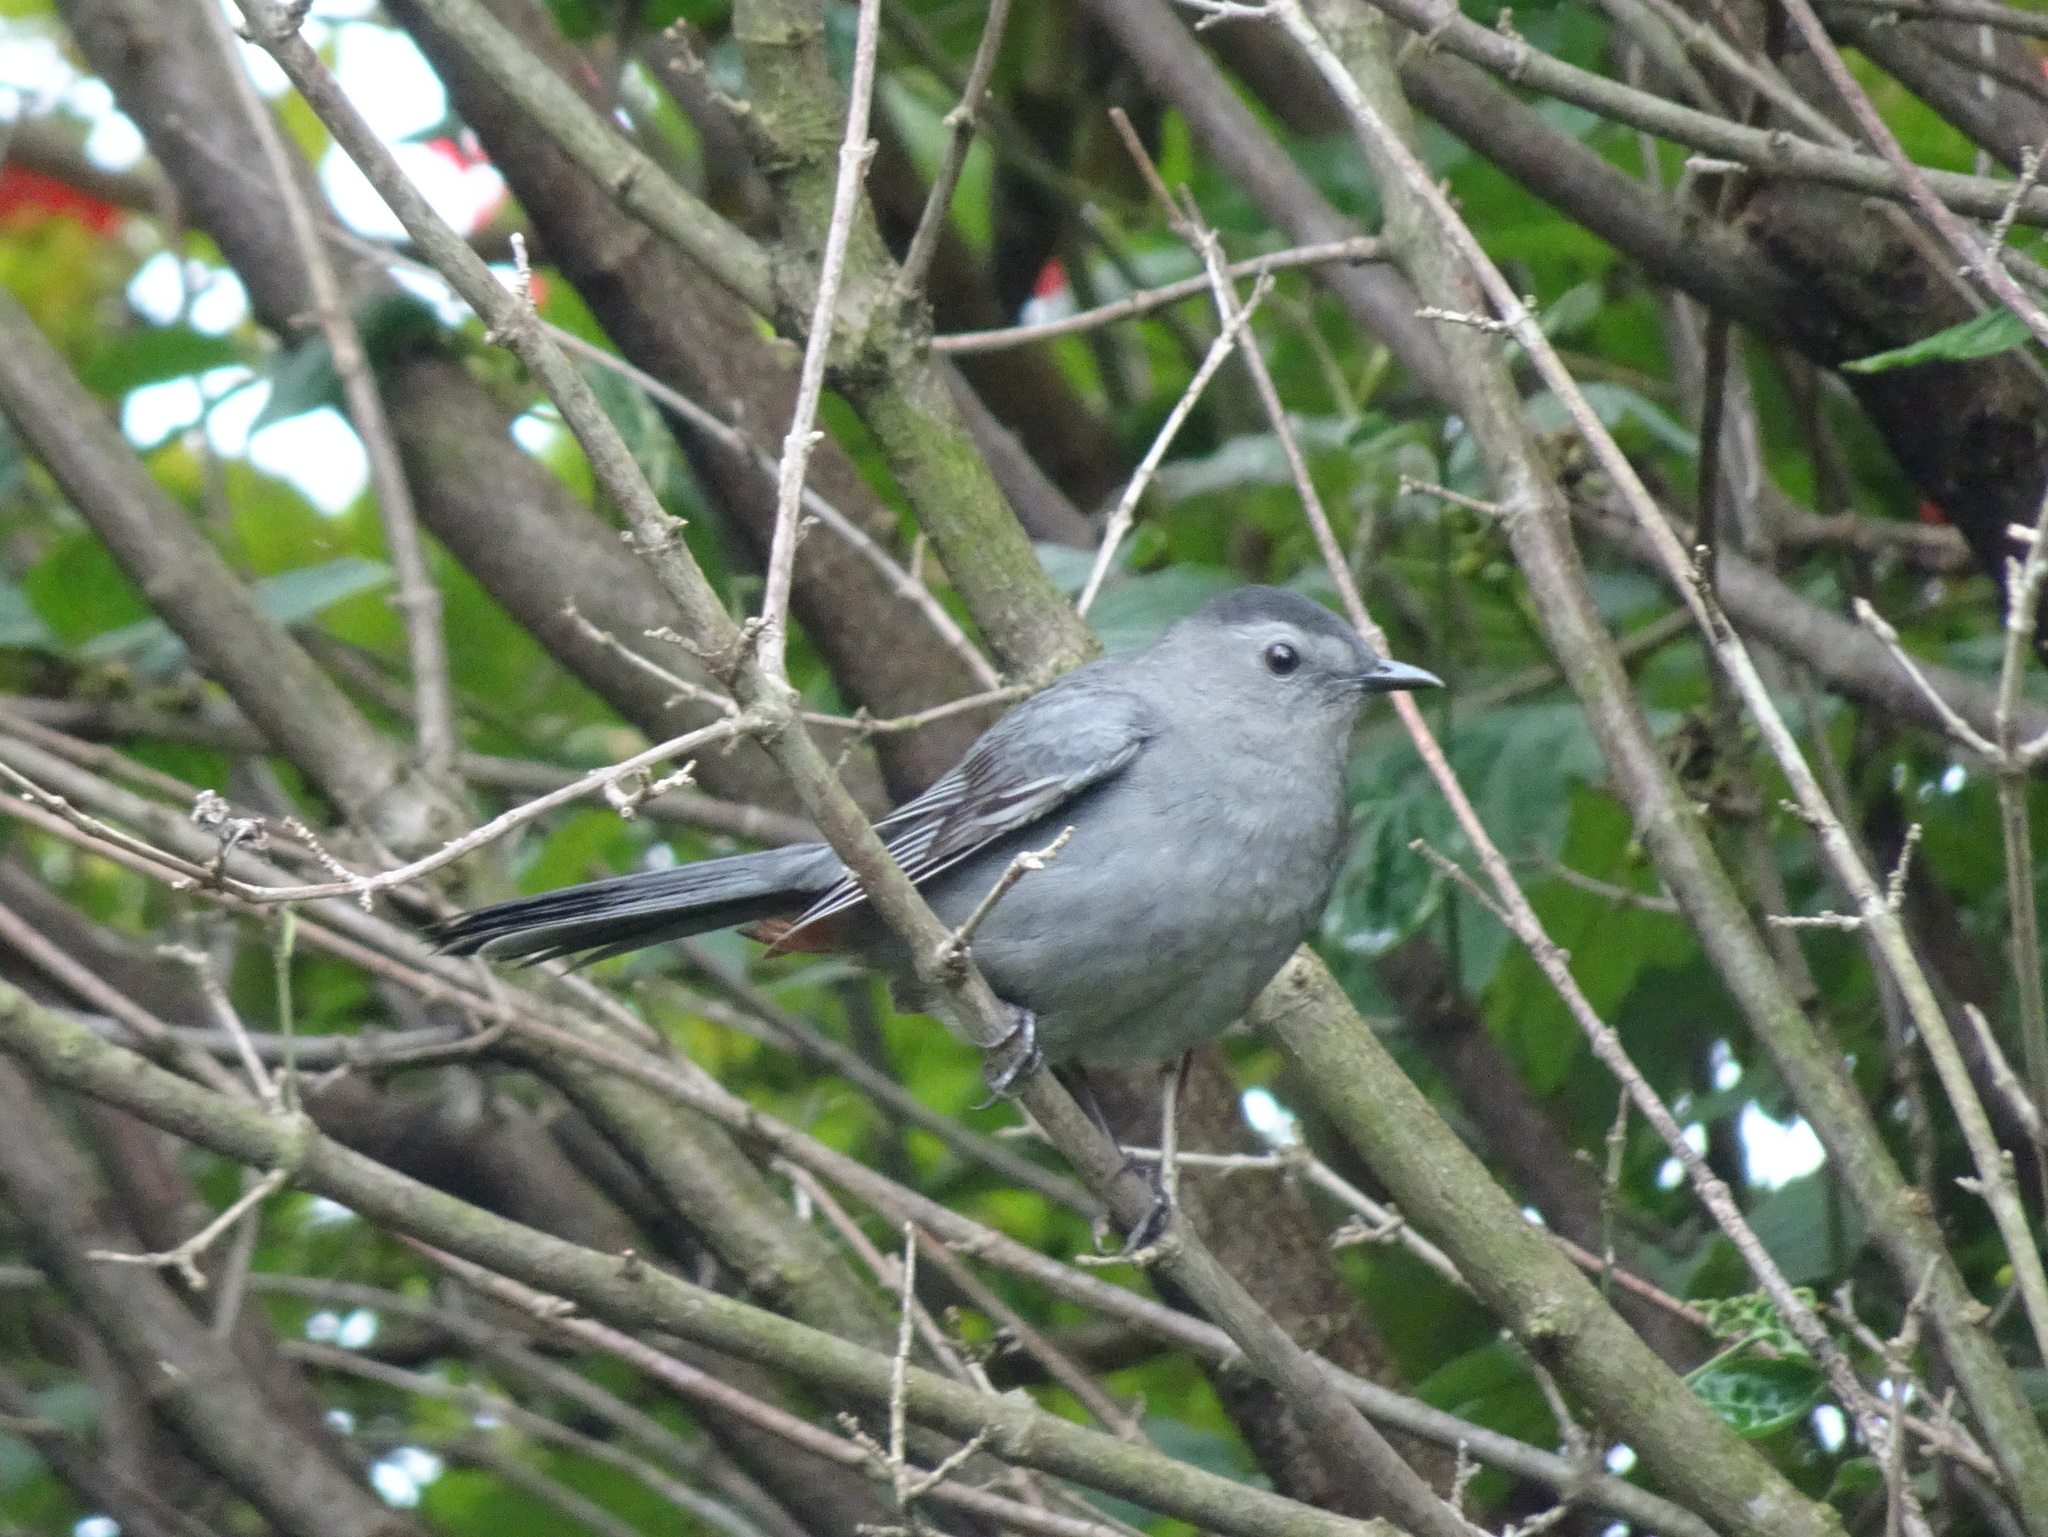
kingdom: Animalia
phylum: Chordata
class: Aves
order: Passeriformes
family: Mimidae
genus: Dumetella
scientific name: Dumetella carolinensis
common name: Gray catbird
